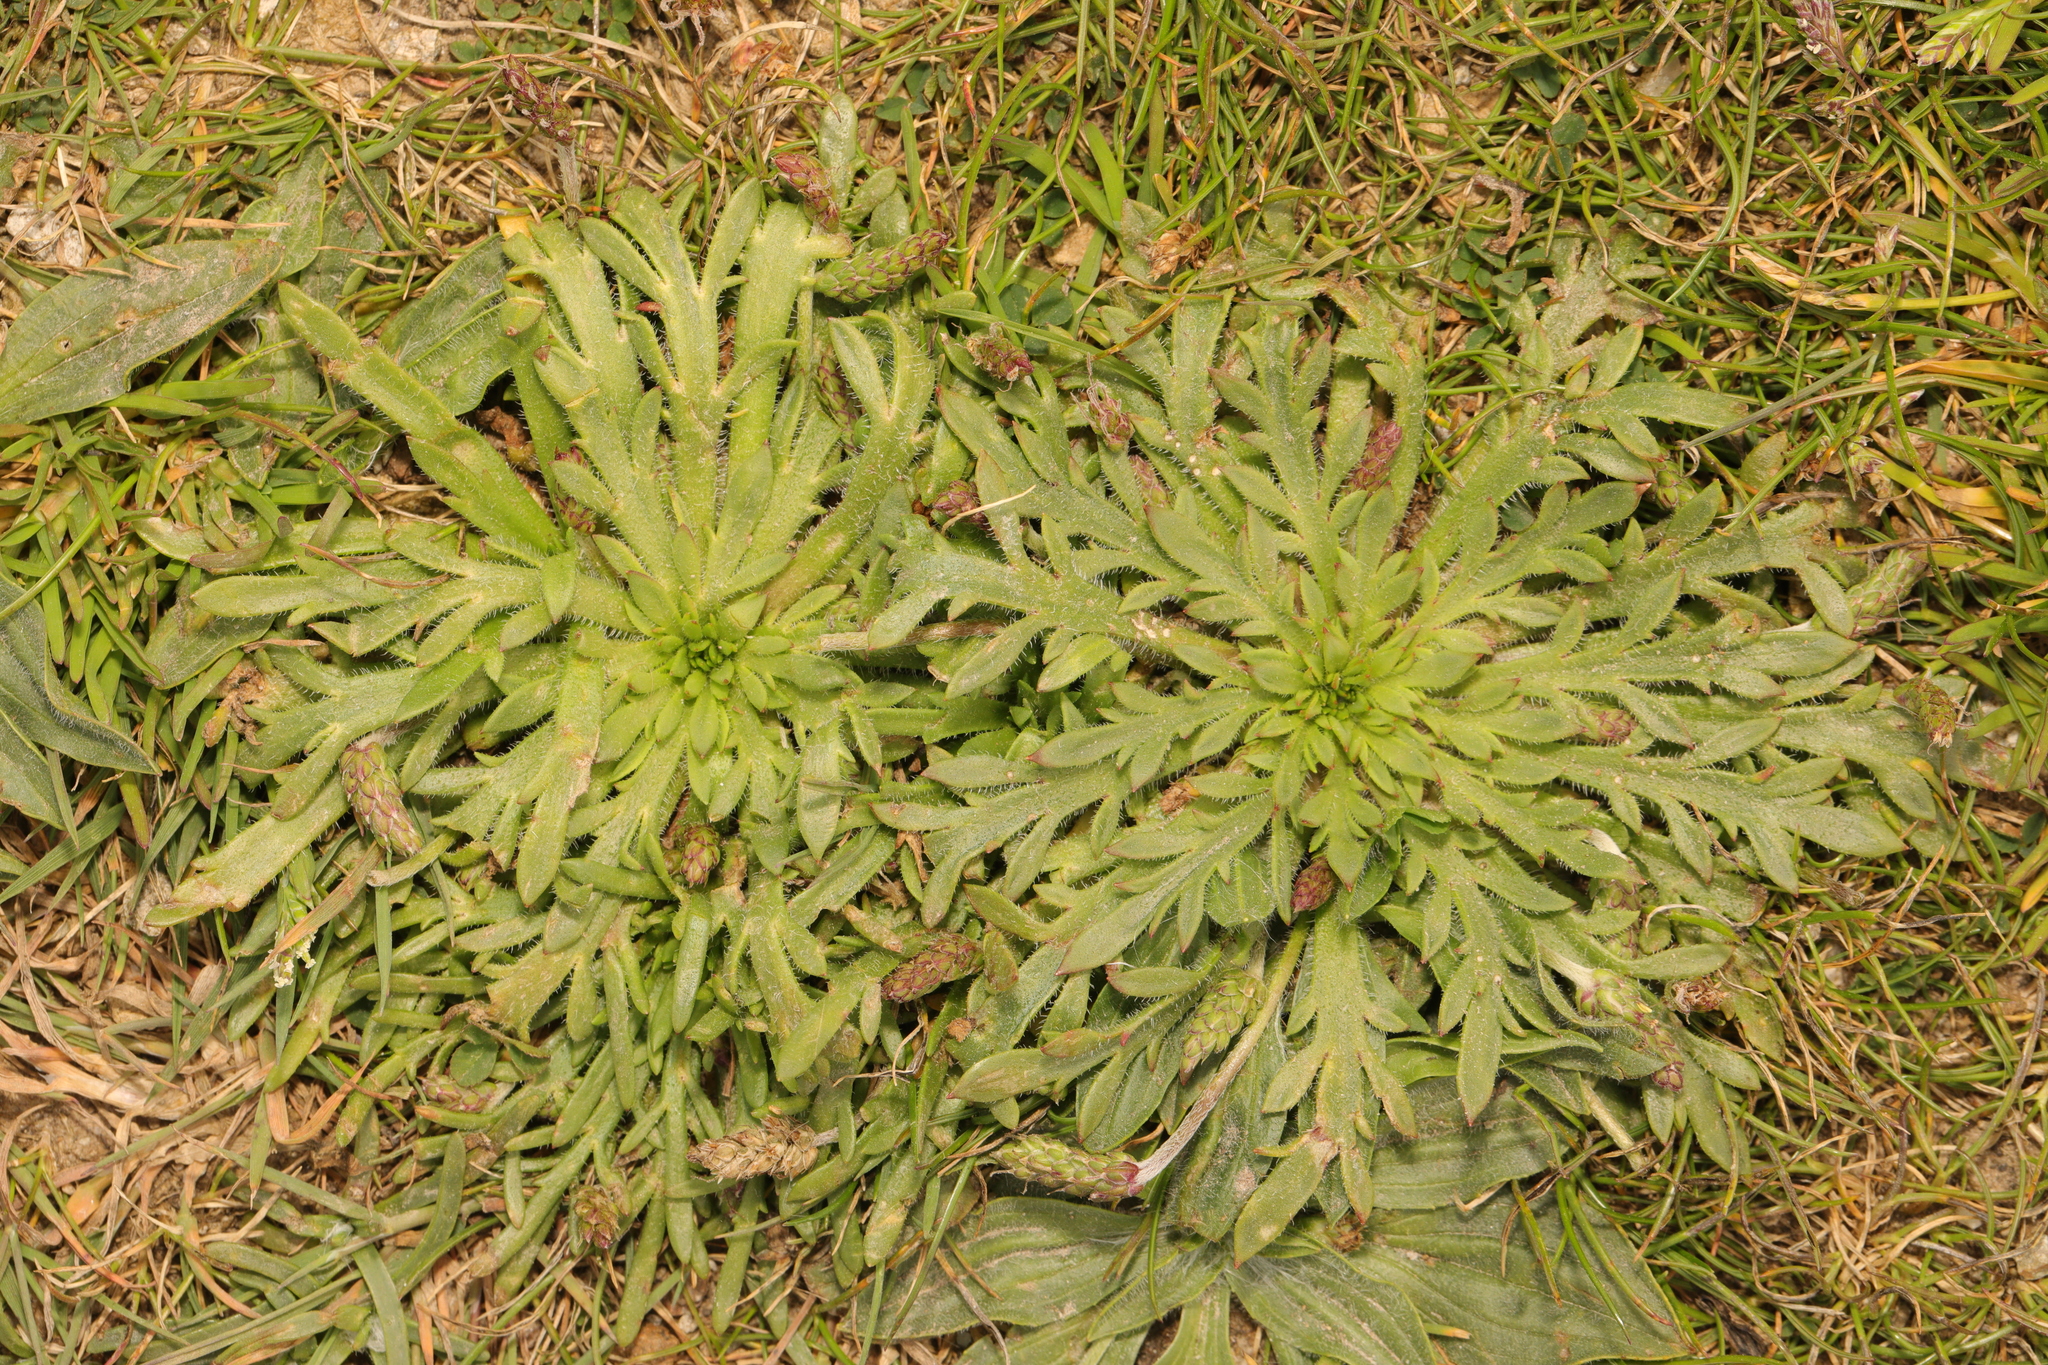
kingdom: Plantae
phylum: Tracheophyta
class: Magnoliopsida
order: Lamiales
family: Plantaginaceae
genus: Plantago
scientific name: Plantago coronopus
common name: Buck's-horn plantain
